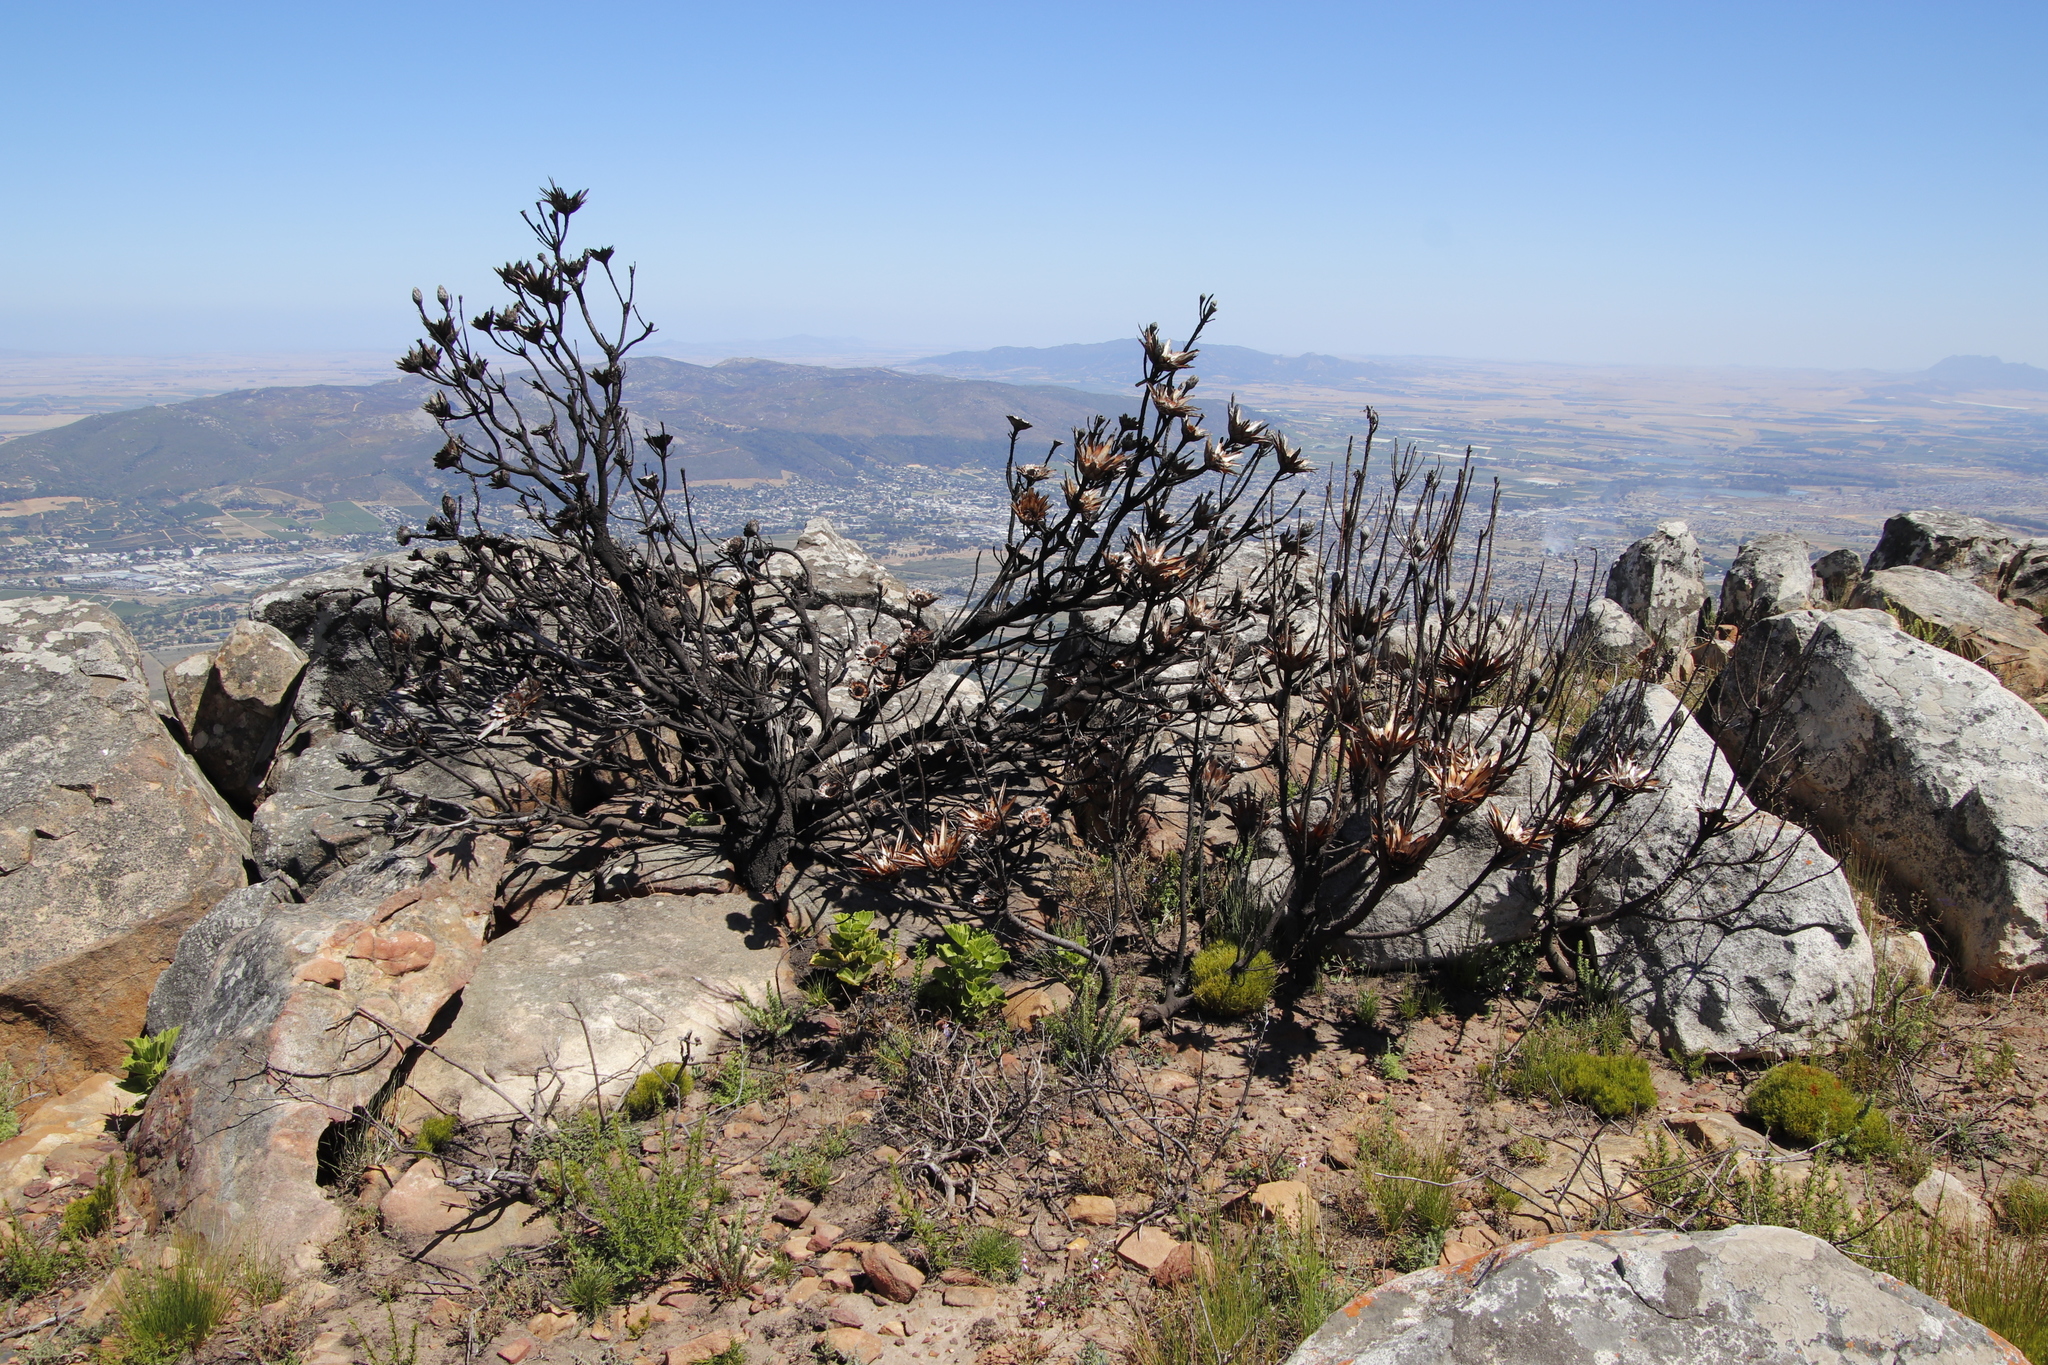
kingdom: Plantae
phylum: Tracheophyta
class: Magnoliopsida
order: Proteales
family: Proteaceae
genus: Protea
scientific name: Protea repens
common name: Sugarbush
